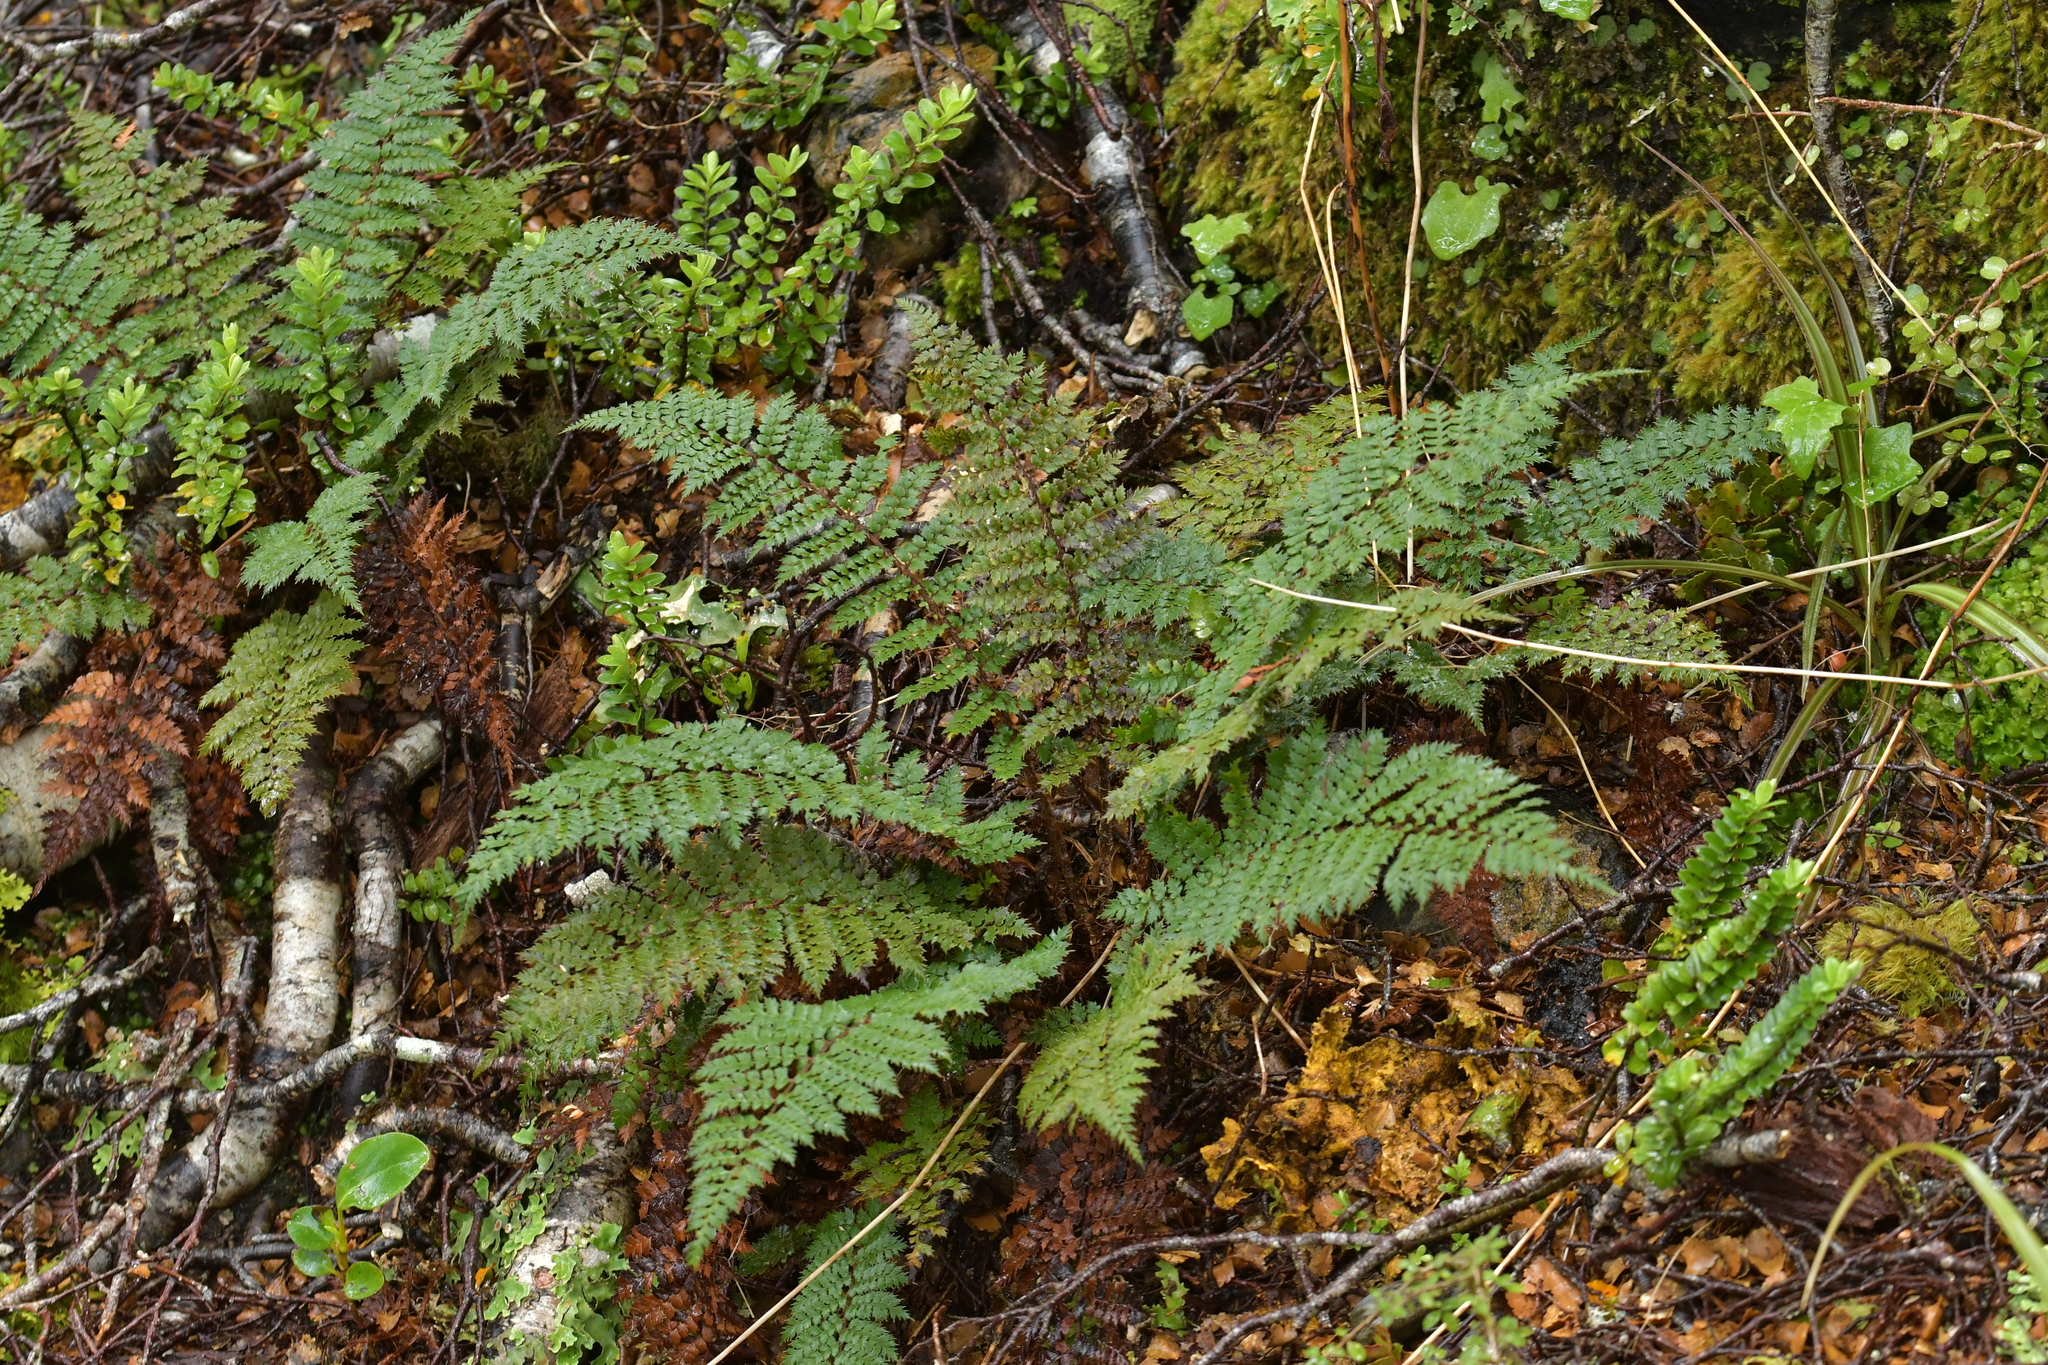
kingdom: Plantae
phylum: Tracheophyta
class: Polypodiopsida
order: Polypodiales
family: Dryopteridaceae
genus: Polystichum
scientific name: Polystichum vestitum
